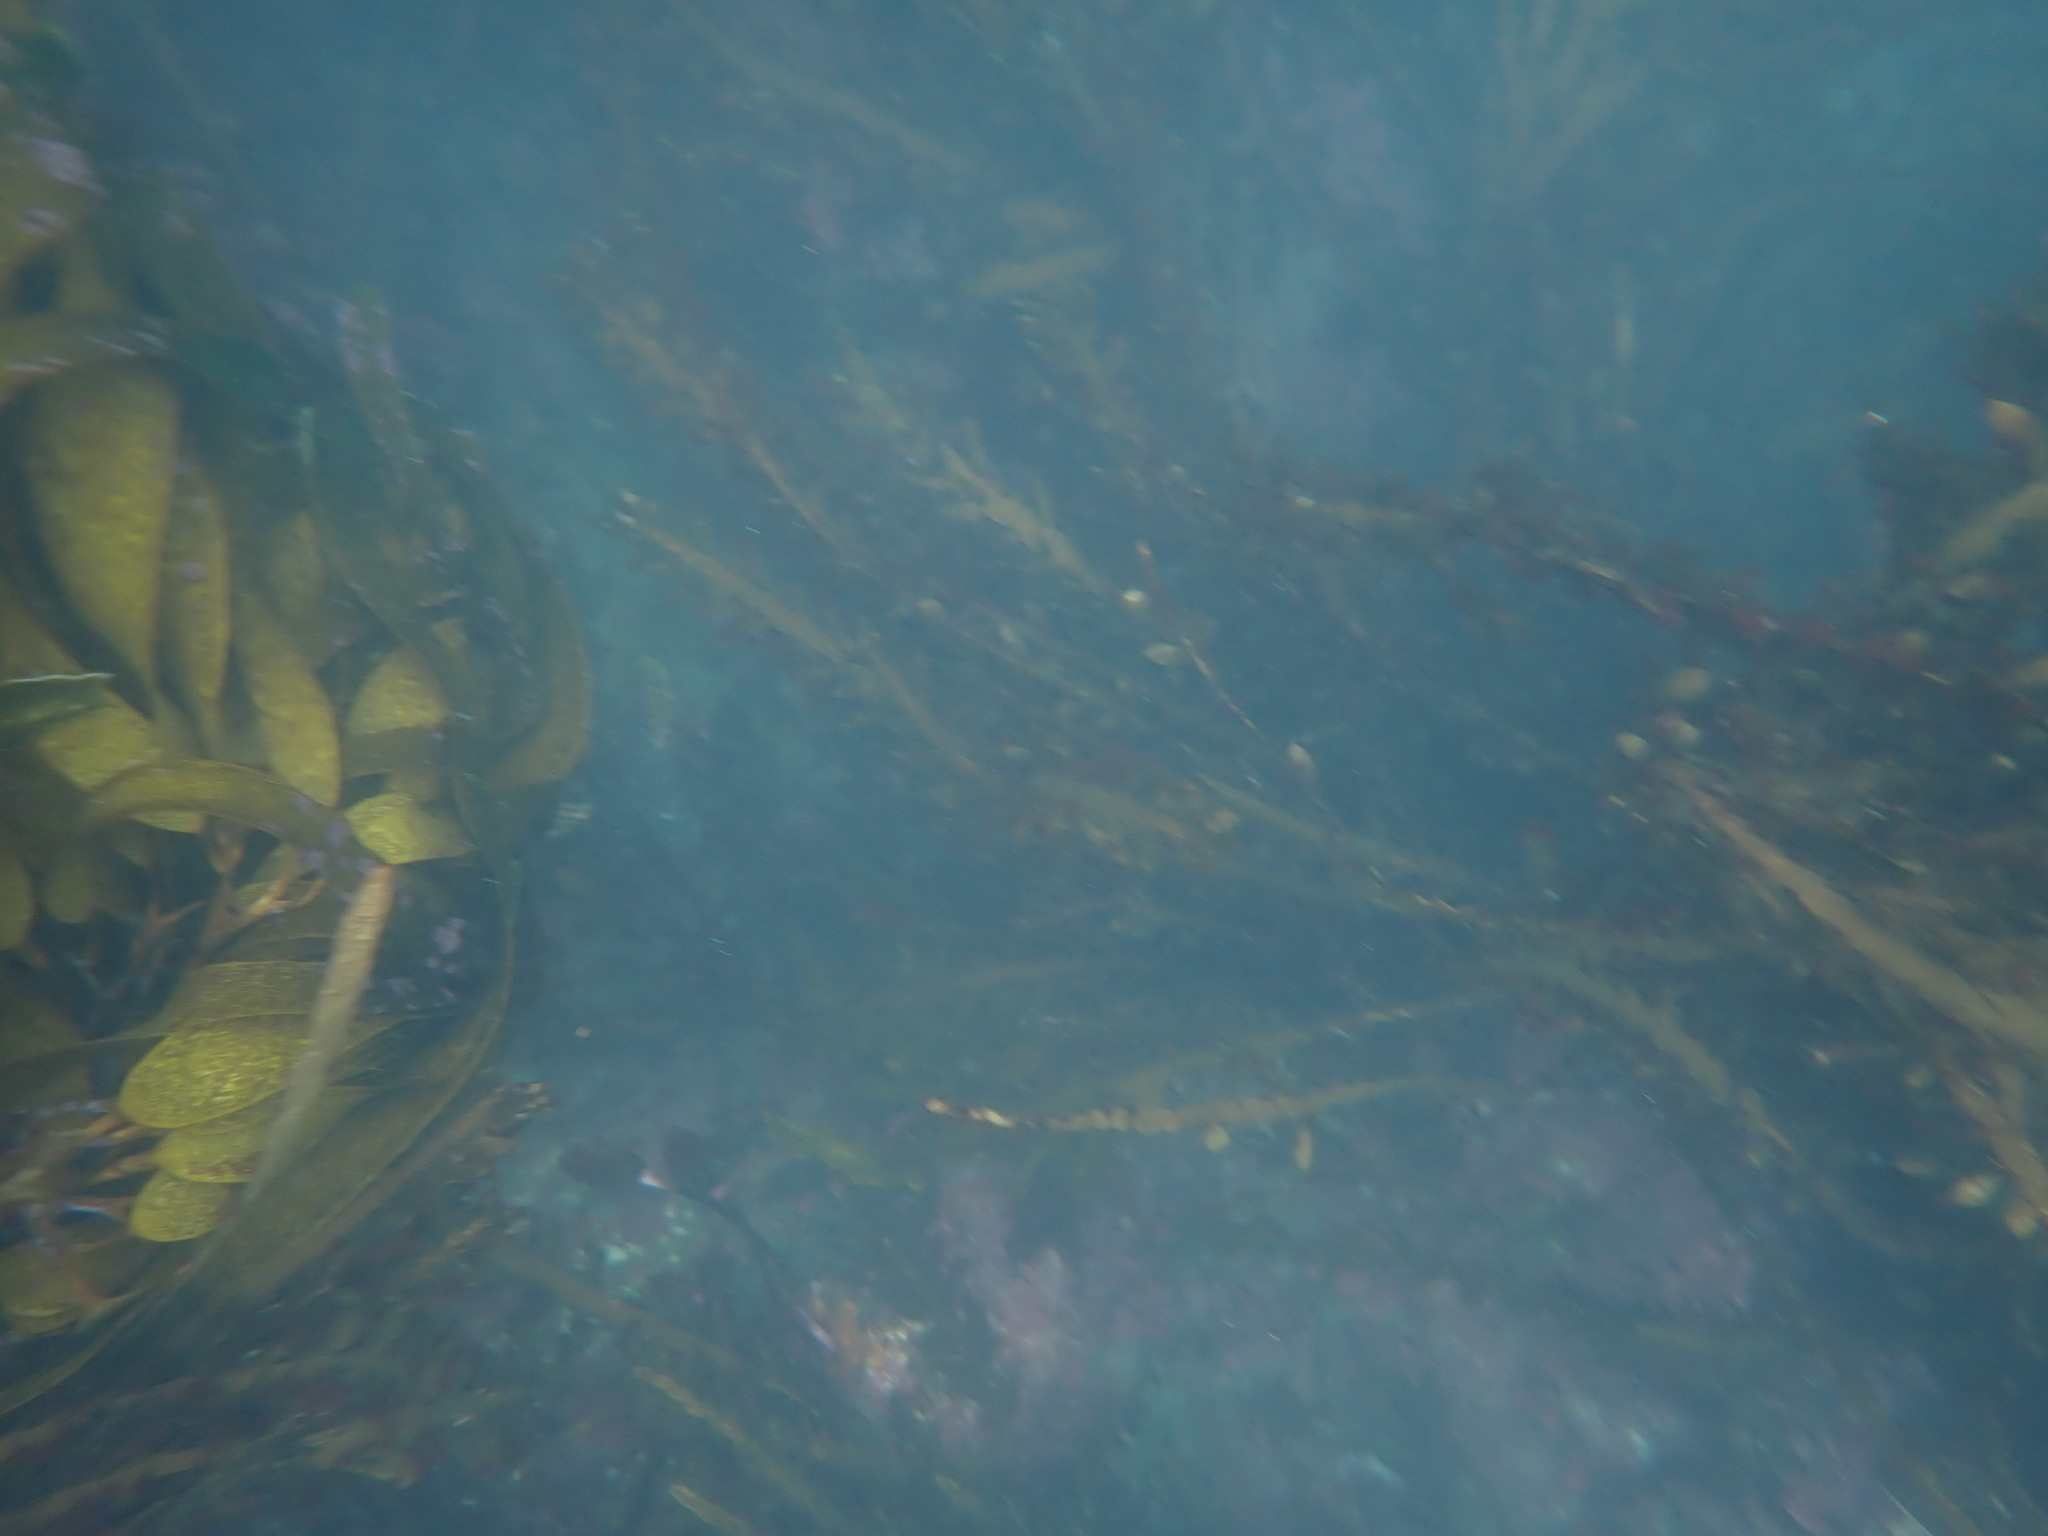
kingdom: Chromista
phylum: Ochrophyta
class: Phaeophyceae
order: Fucales
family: Sargassaceae
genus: Carpophyllum
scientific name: Carpophyllum maschalocarpum
